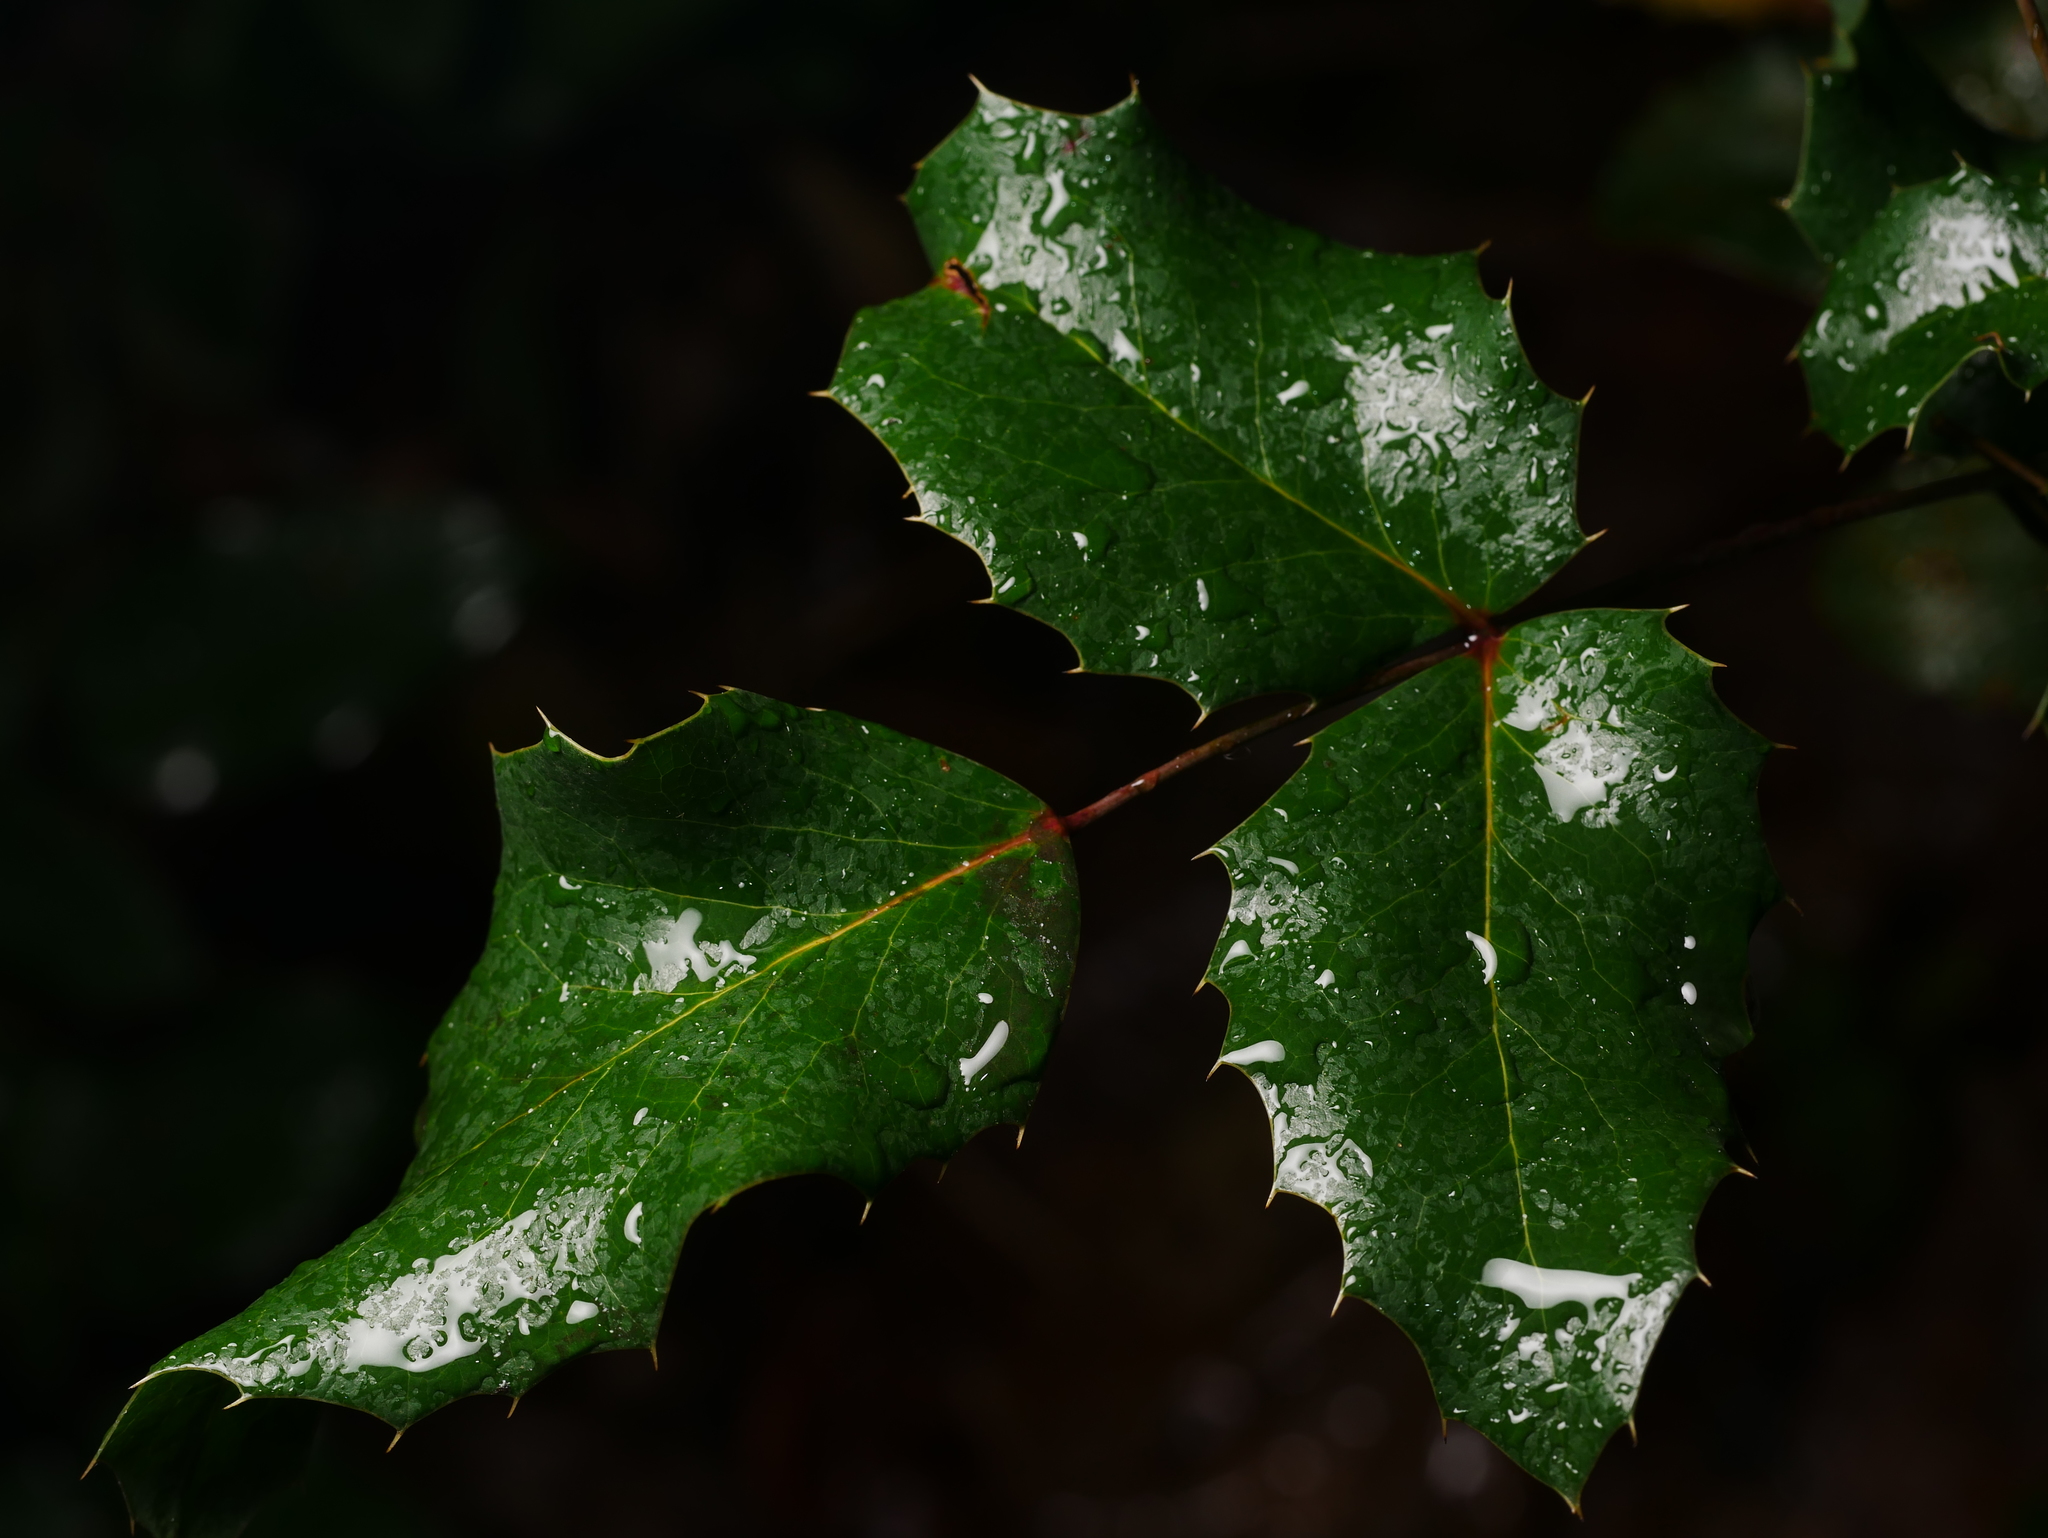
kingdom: Plantae
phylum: Tracheophyta
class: Magnoliopsida
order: Ranunculales
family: Berberidaceae
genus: Mahonia
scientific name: Mahonia aquifolium
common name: Oregon-grape
